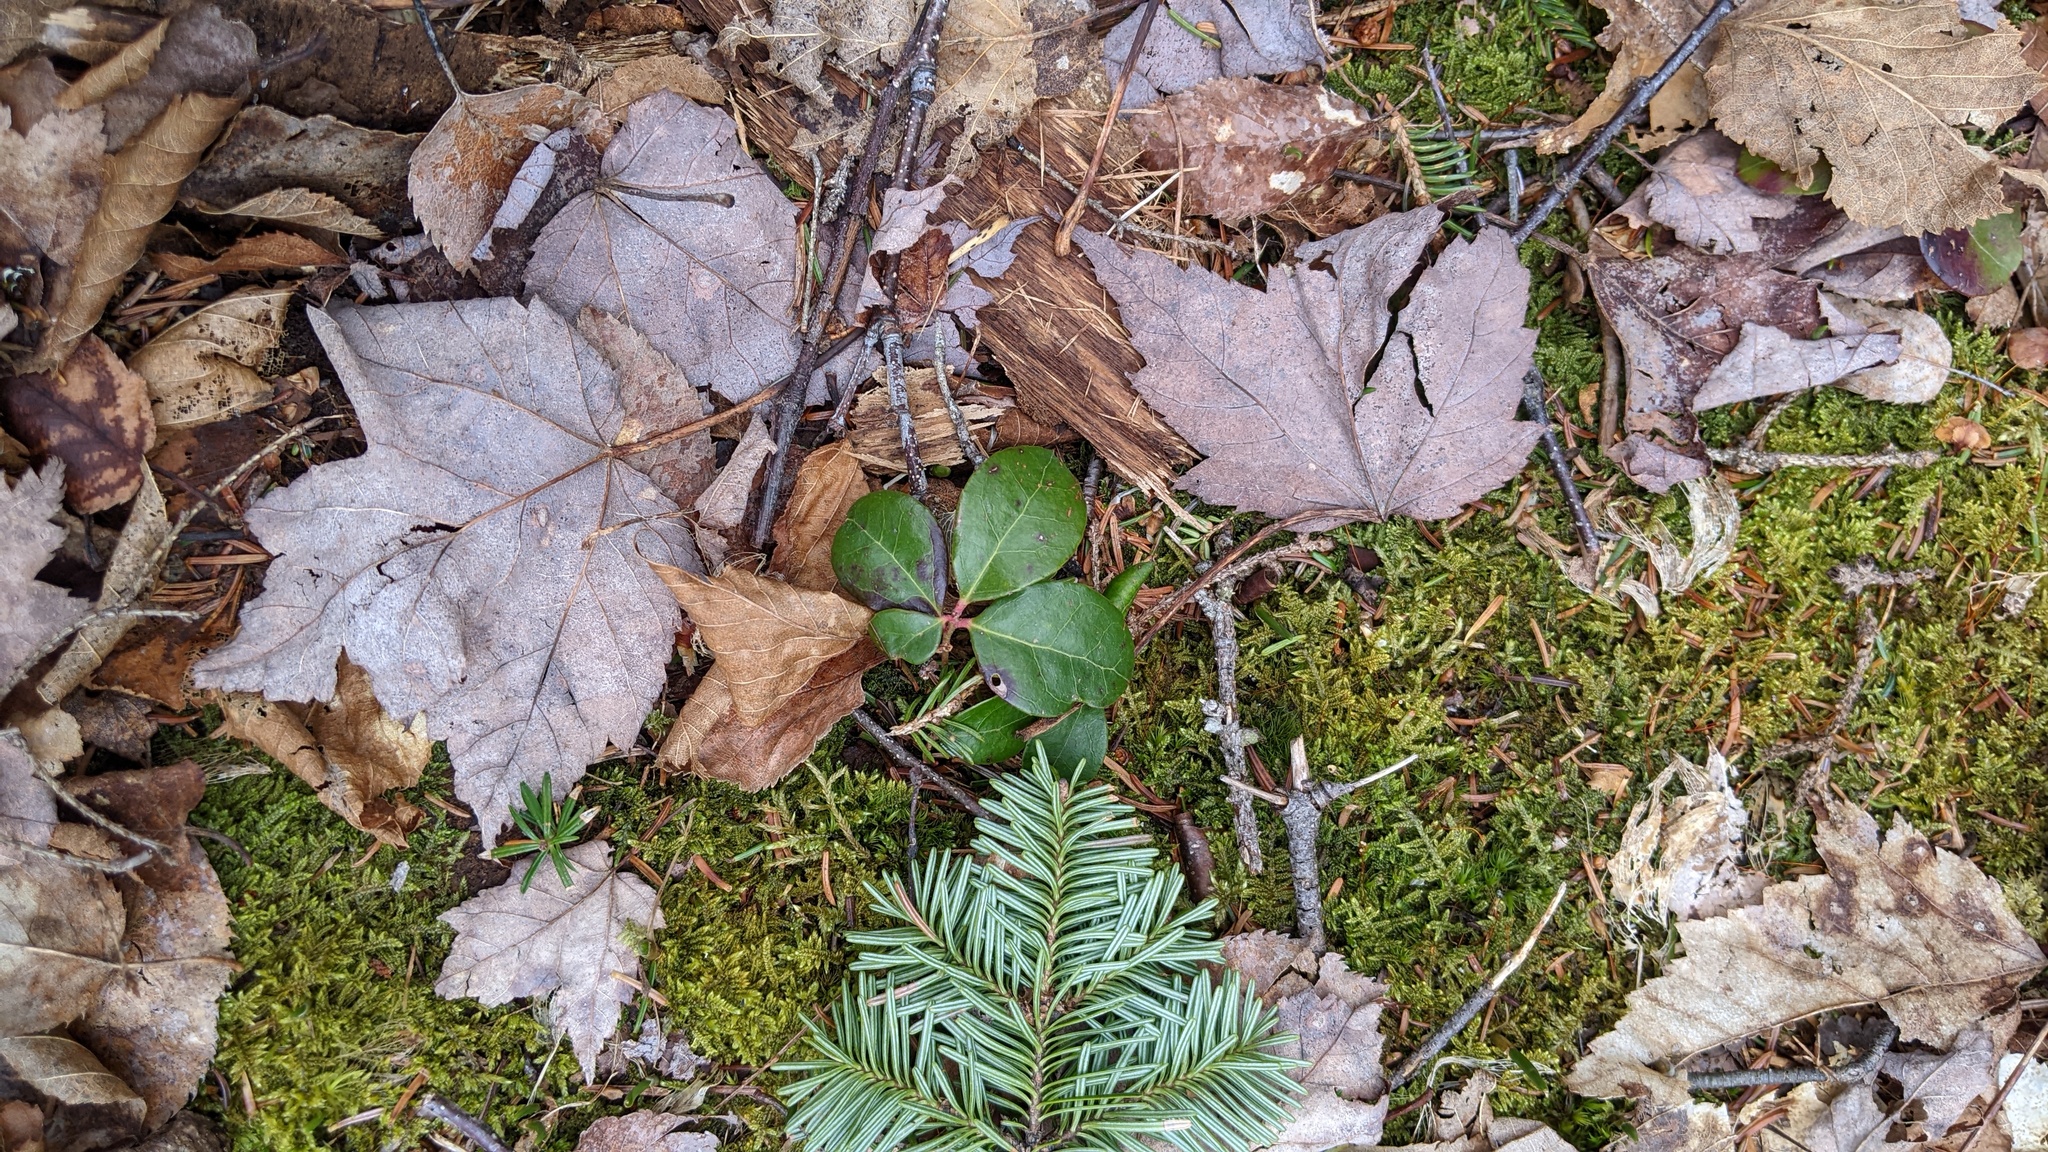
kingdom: Plantae
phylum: Tracheophyta
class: Magnoliopsida
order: Ericales
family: Ericaceae
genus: Gaultheria
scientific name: Gaultheria procumbens
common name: Checkerberry
